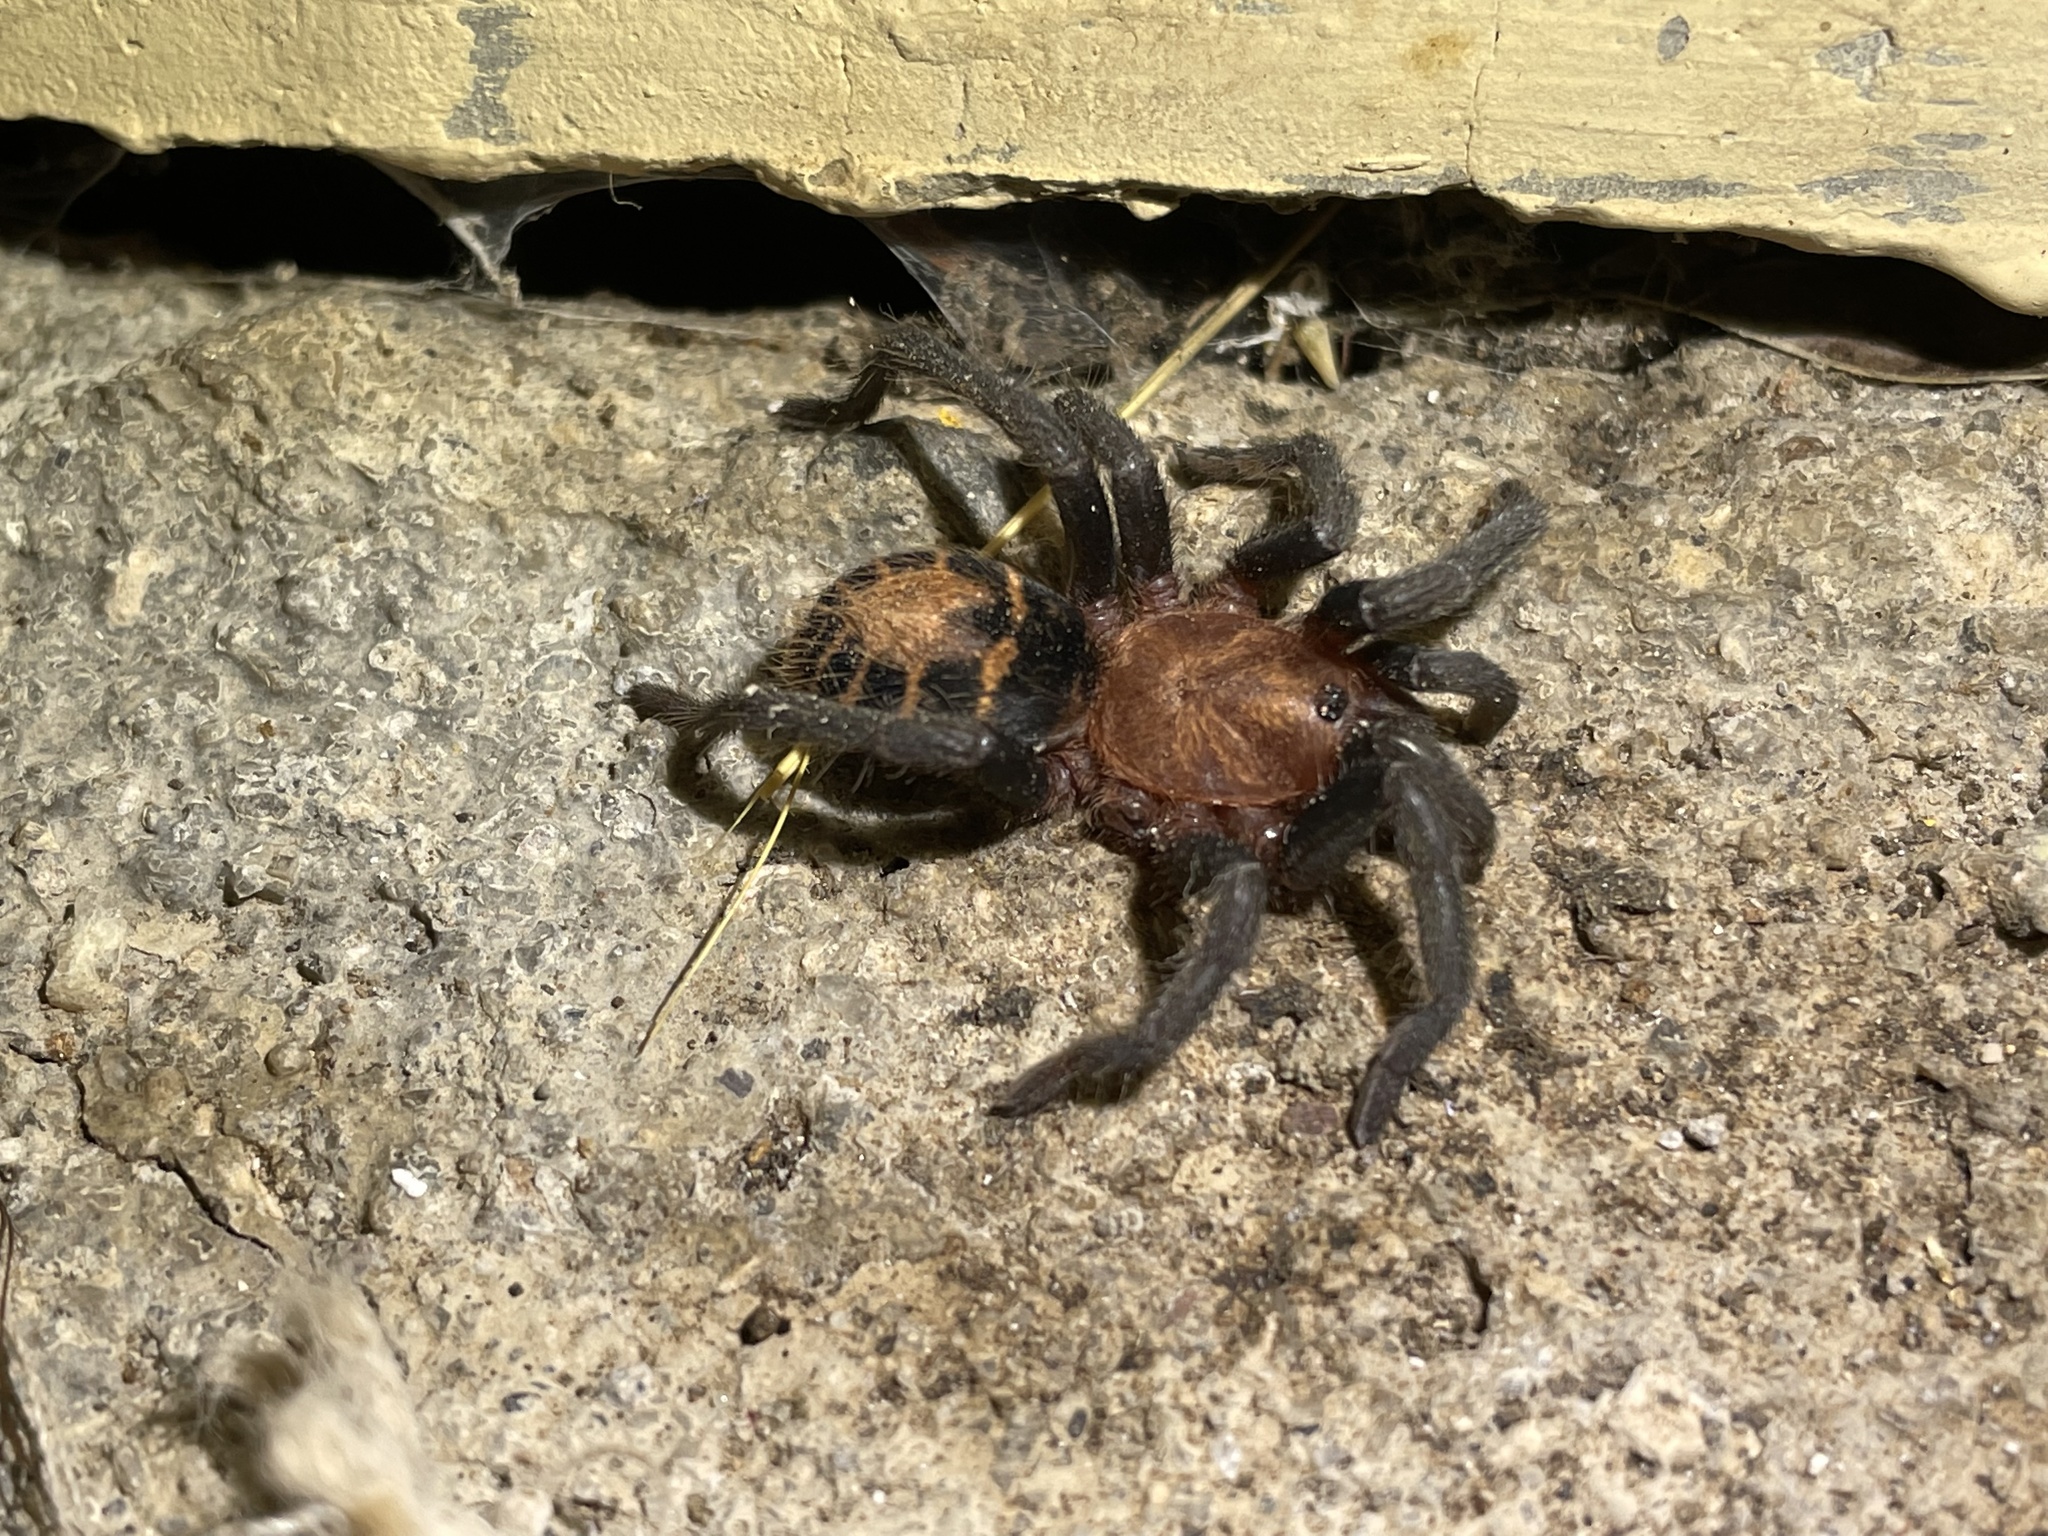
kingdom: Animalia
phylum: Arthropoda
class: Arachnida
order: Araneae
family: Theraphosidae
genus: Davus
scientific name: Davus ruficeps
